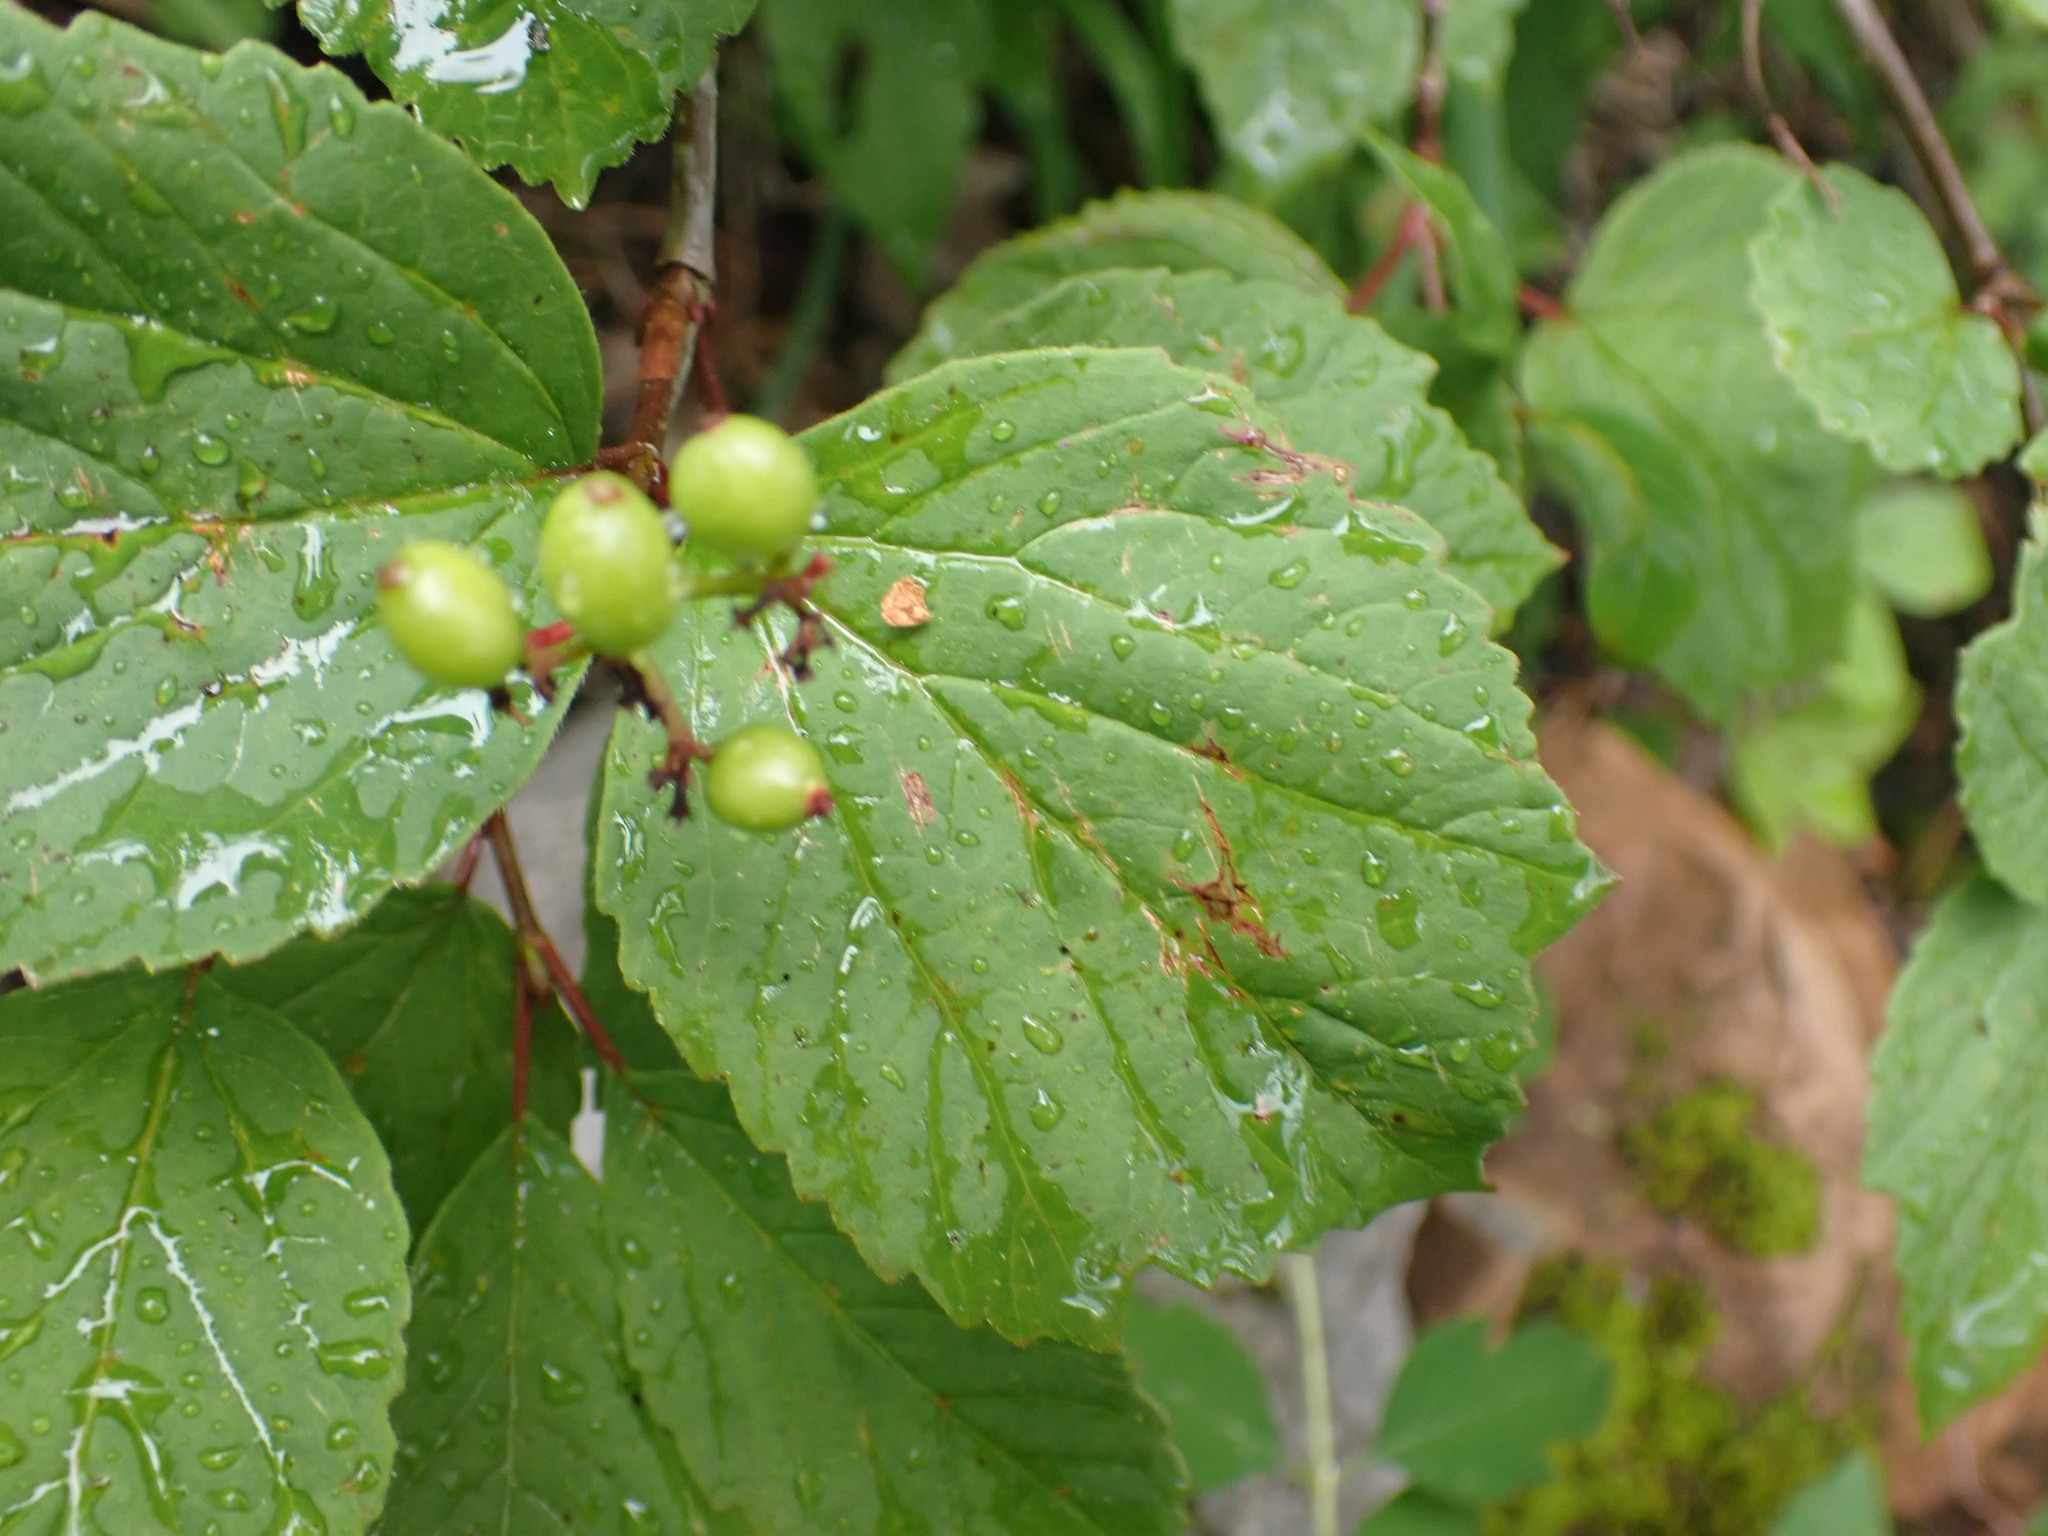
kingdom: Plantae
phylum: Tracheophyta
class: Magnoliopsida
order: Dipsacales
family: Viburnaceae
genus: Viburnum
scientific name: Viburnum edule
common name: Mooseberry
